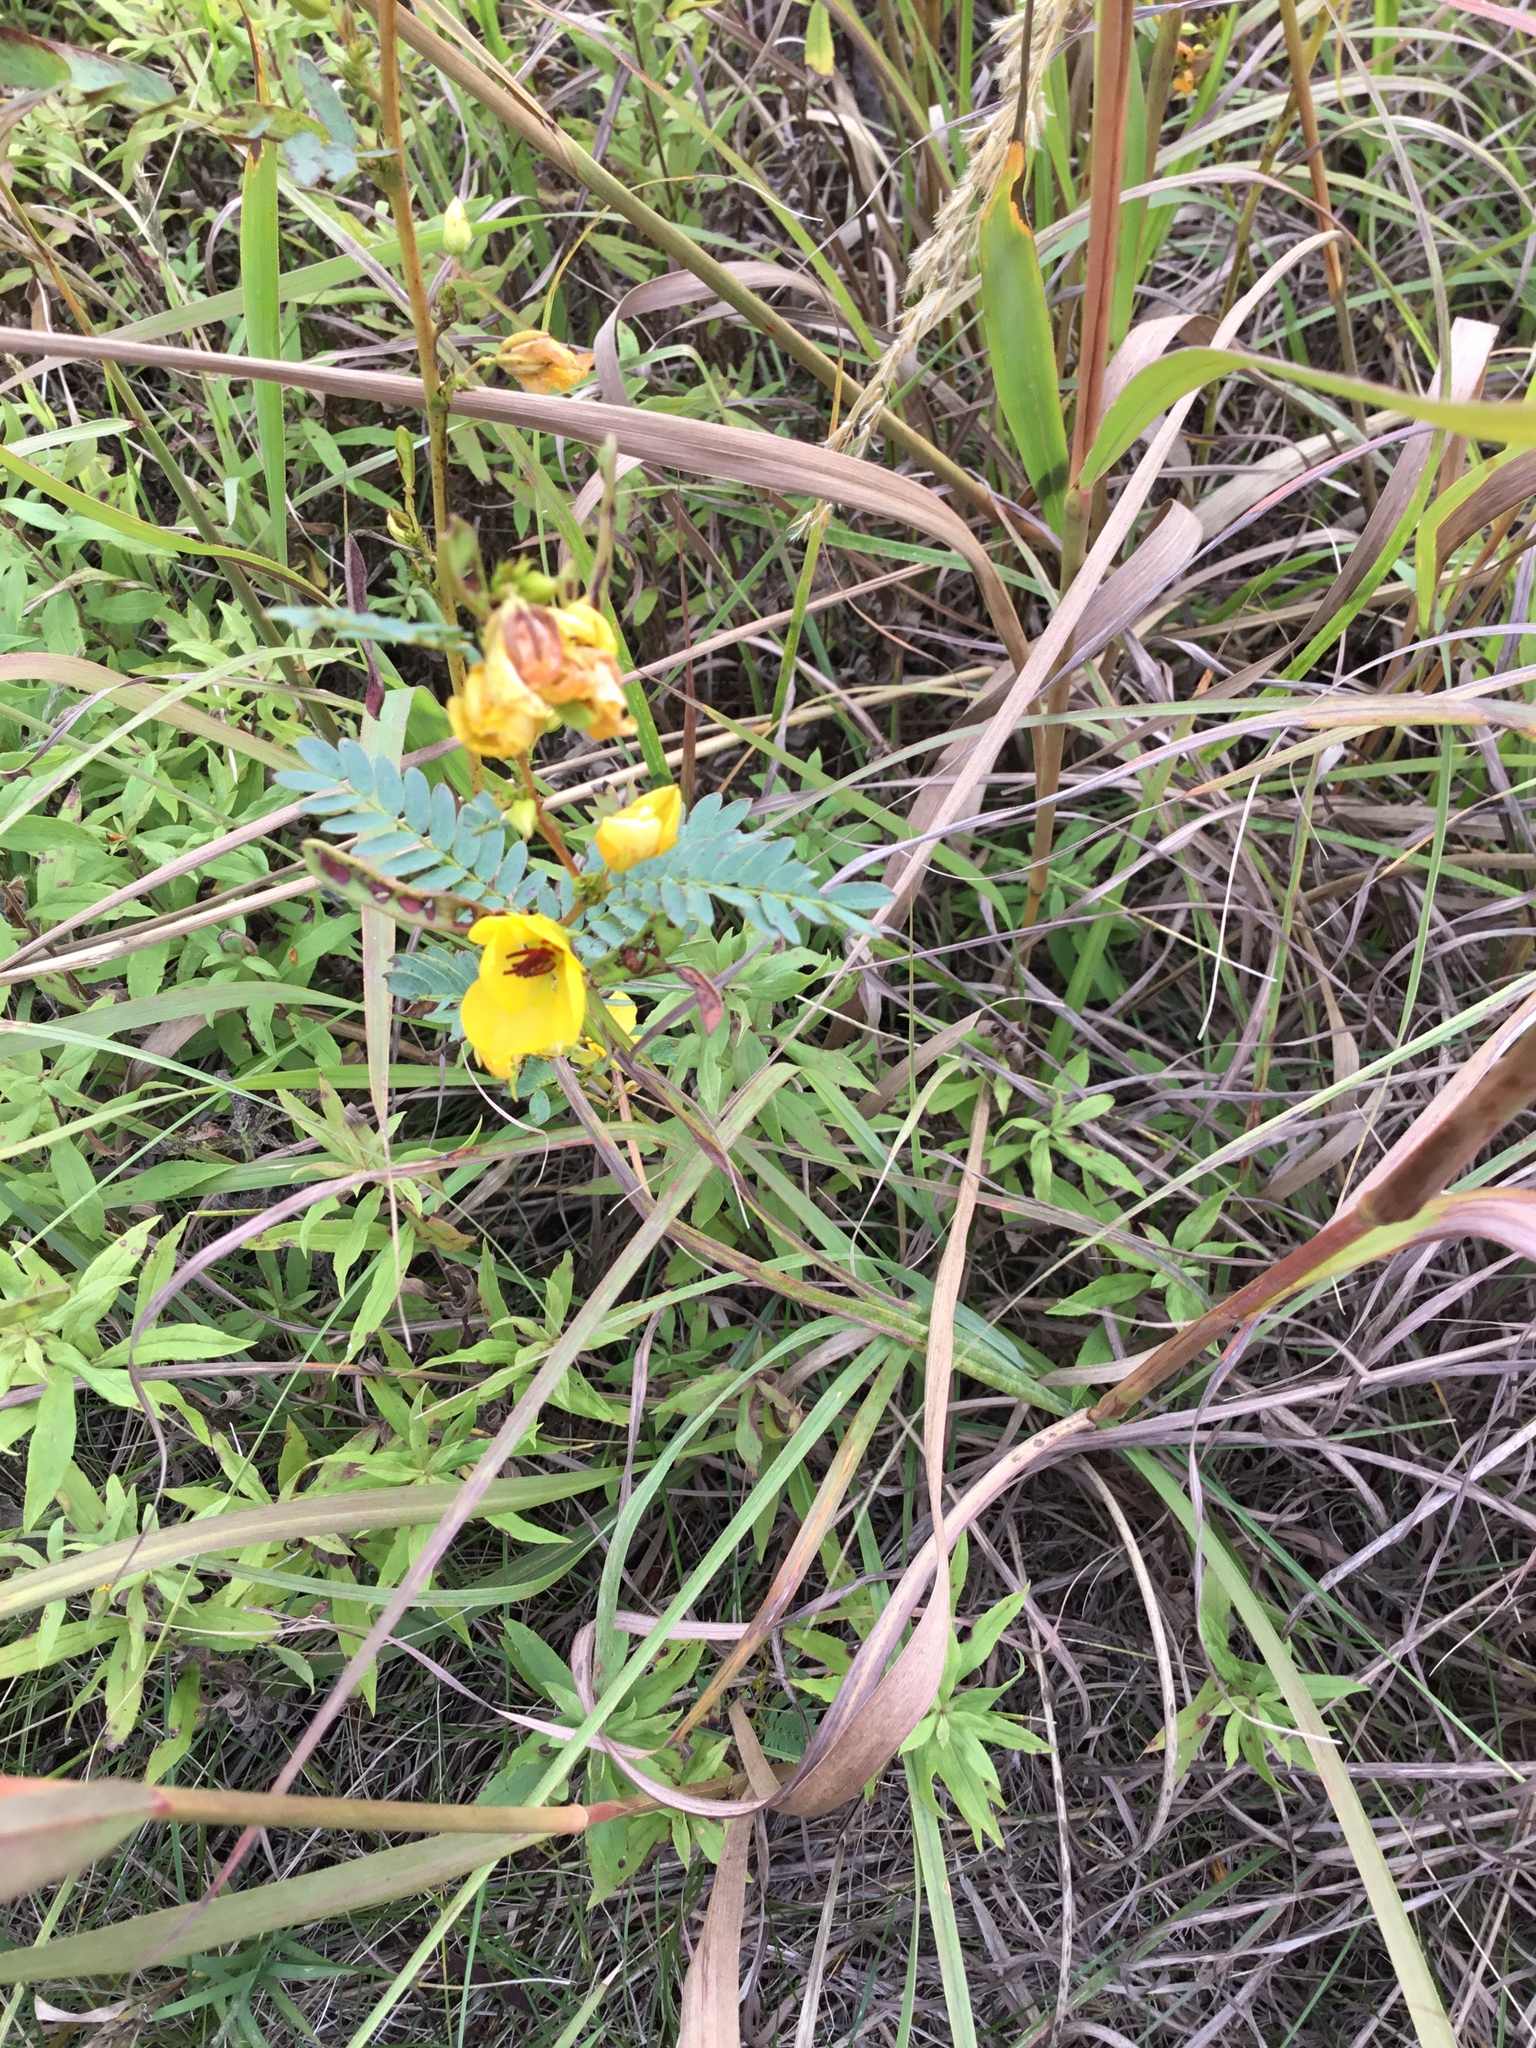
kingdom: Plantae
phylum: Tracheophyta
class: Magnoliopsida
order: Fabales
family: Fabaceae
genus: Chamaecrista
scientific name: Chamaecrista fasciculata
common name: Golden cassia
